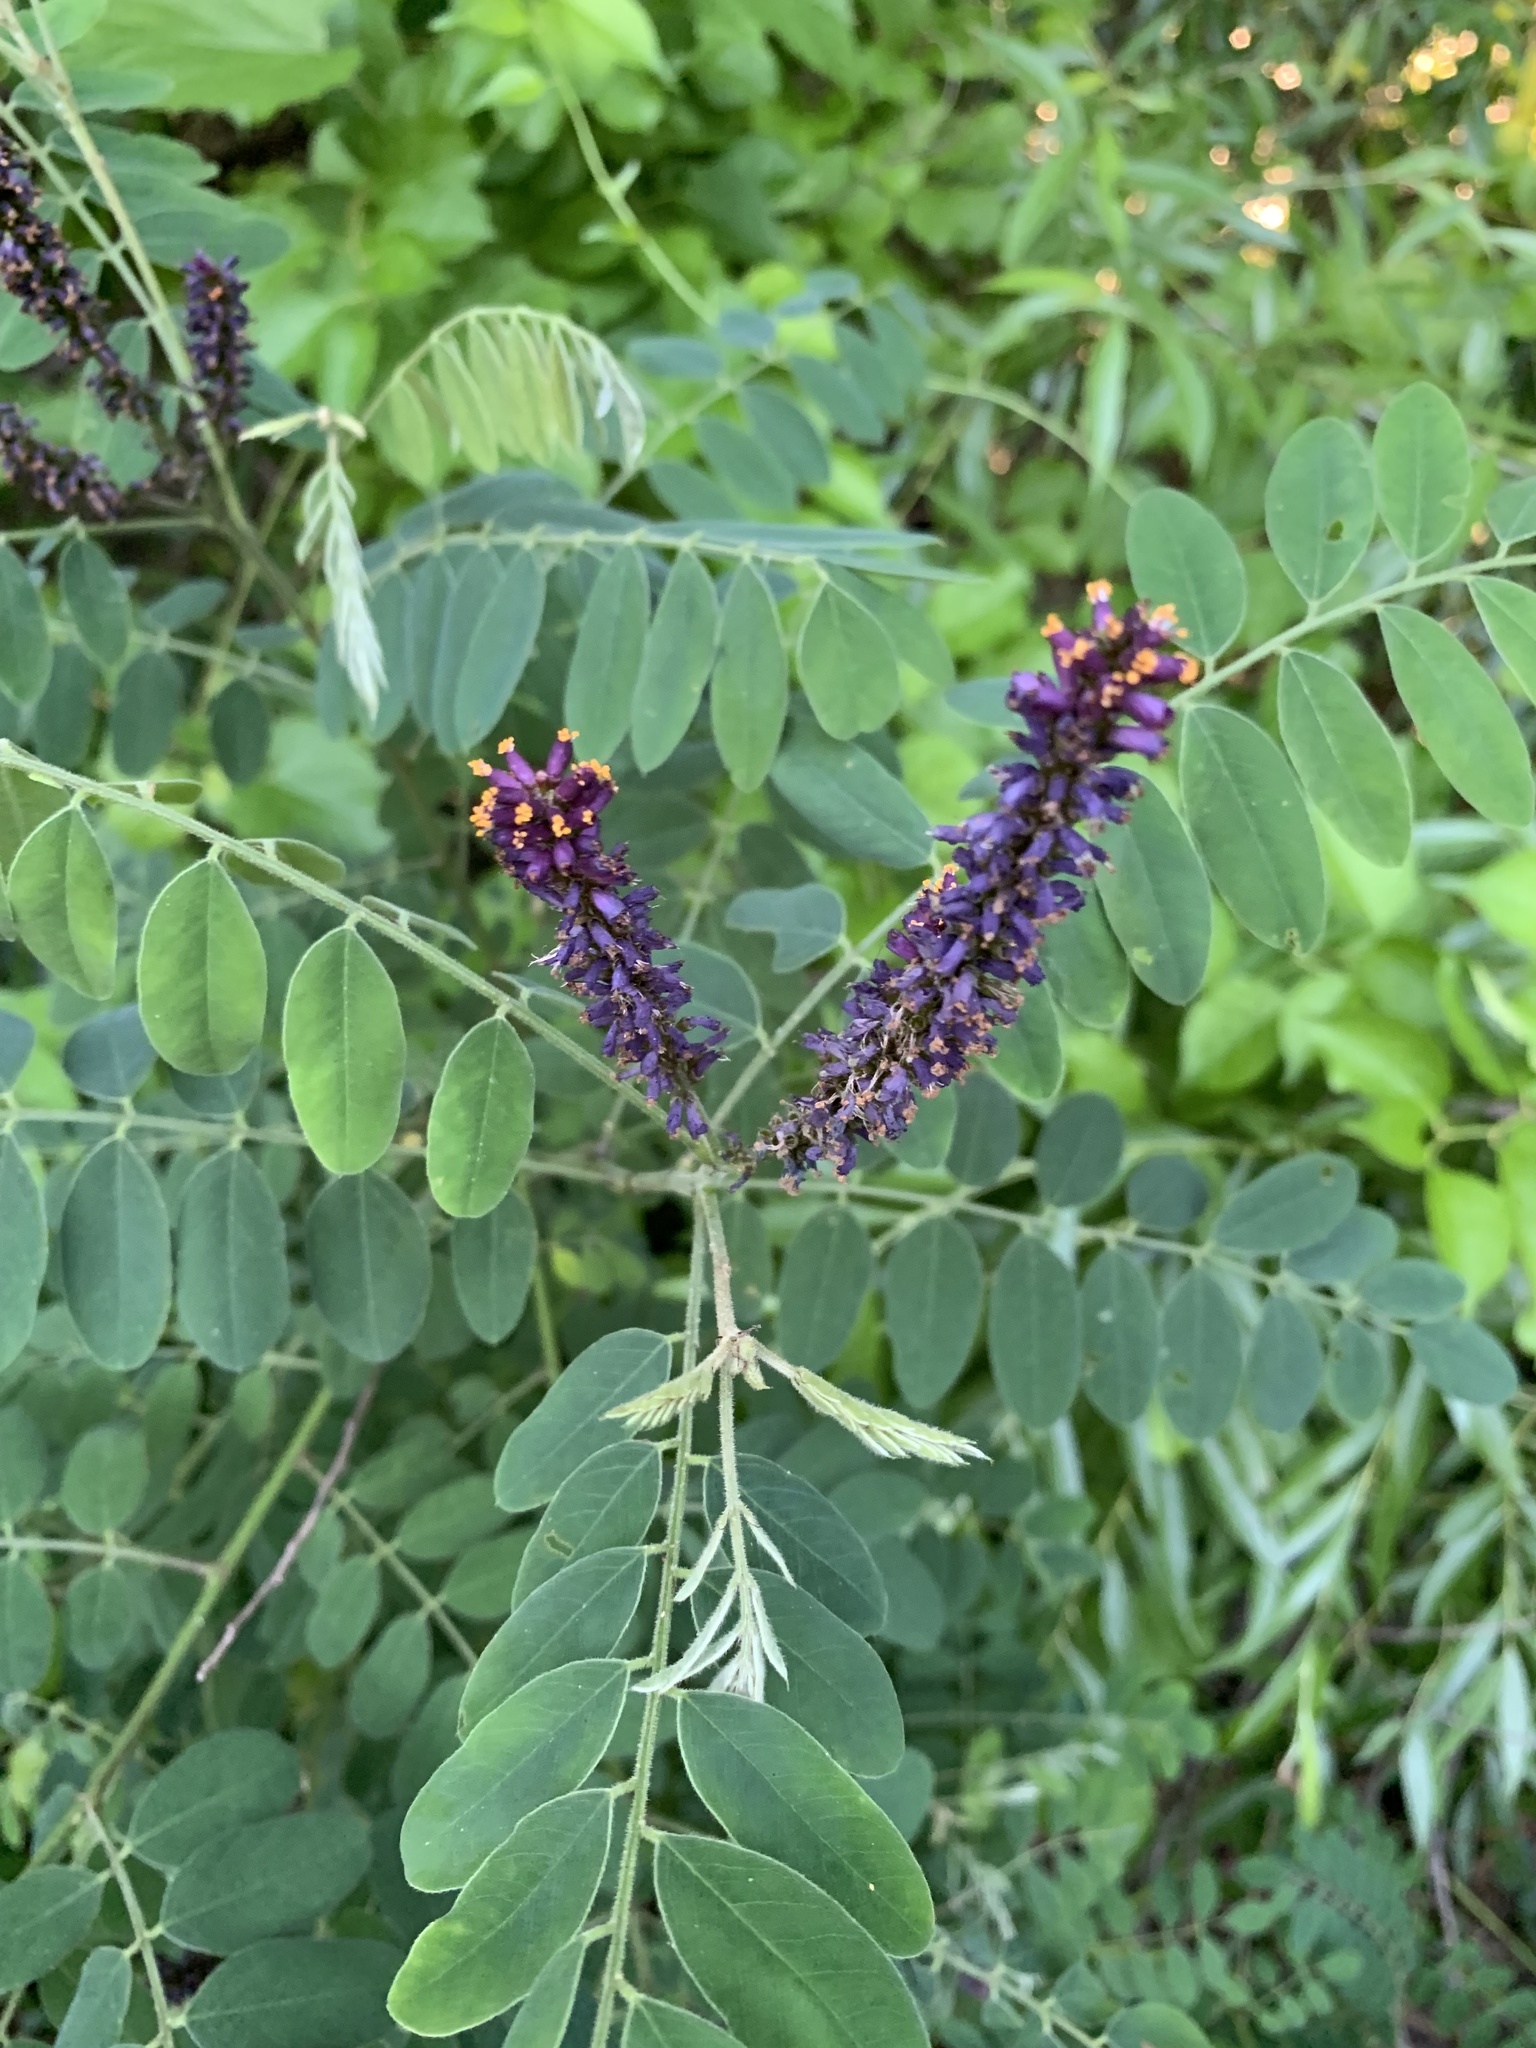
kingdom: Plantae
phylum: Tracheophyta
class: Magnoliopsida
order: Fabales
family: Fabaceae
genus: Amorpha
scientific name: Amorpha fruticosa
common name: False indigo
